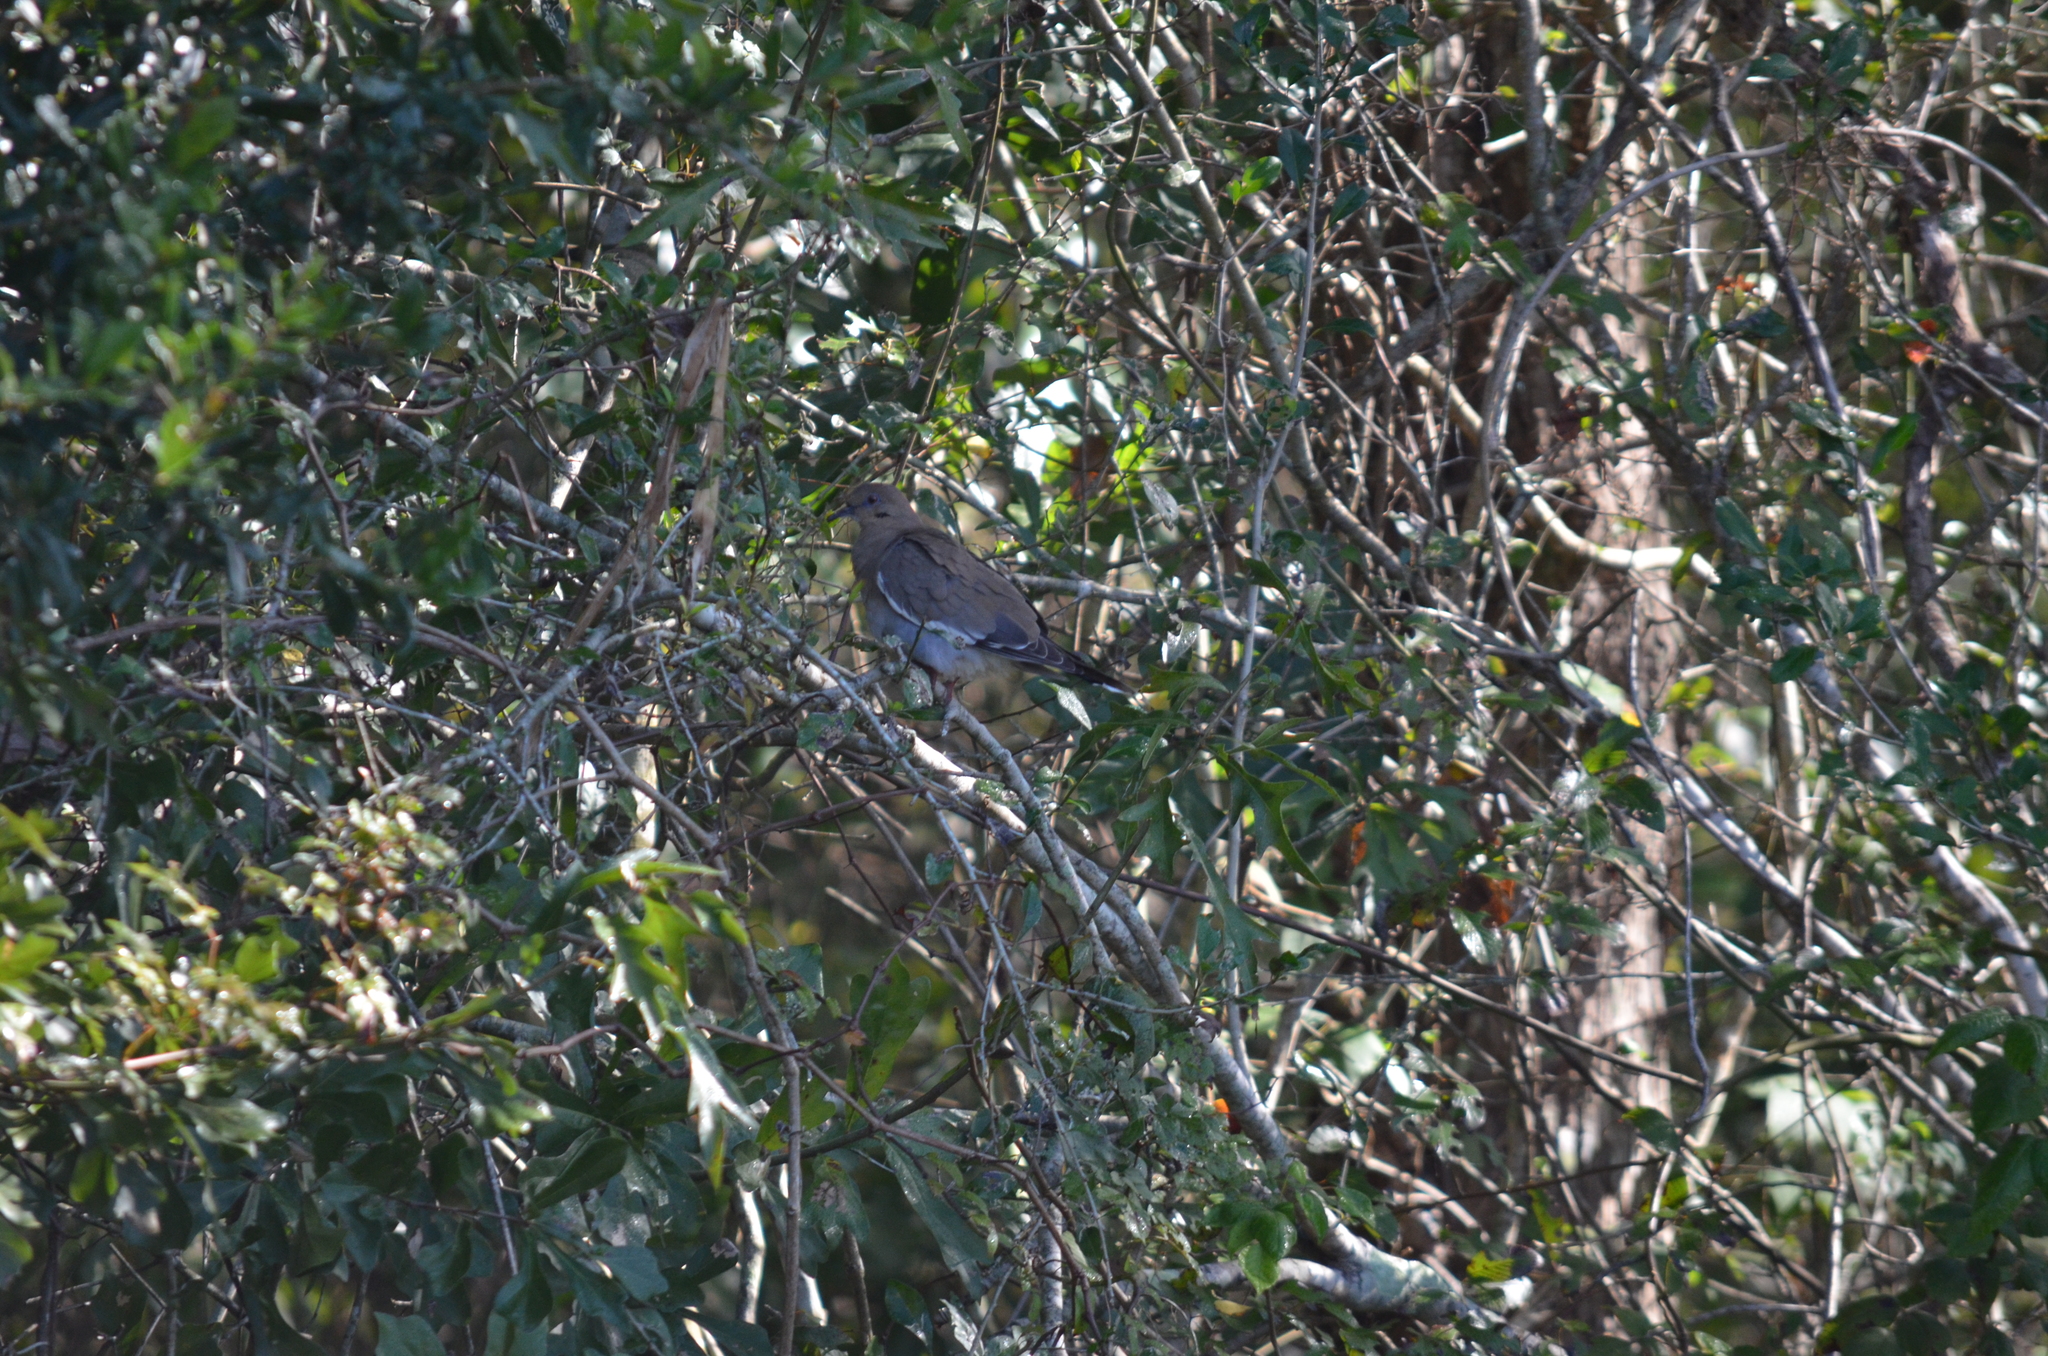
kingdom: Animalia
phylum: Chordata
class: Aves
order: Columbiformes
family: Columbidae
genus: Zenaida
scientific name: Zenaida asiatica
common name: White-winged dove
